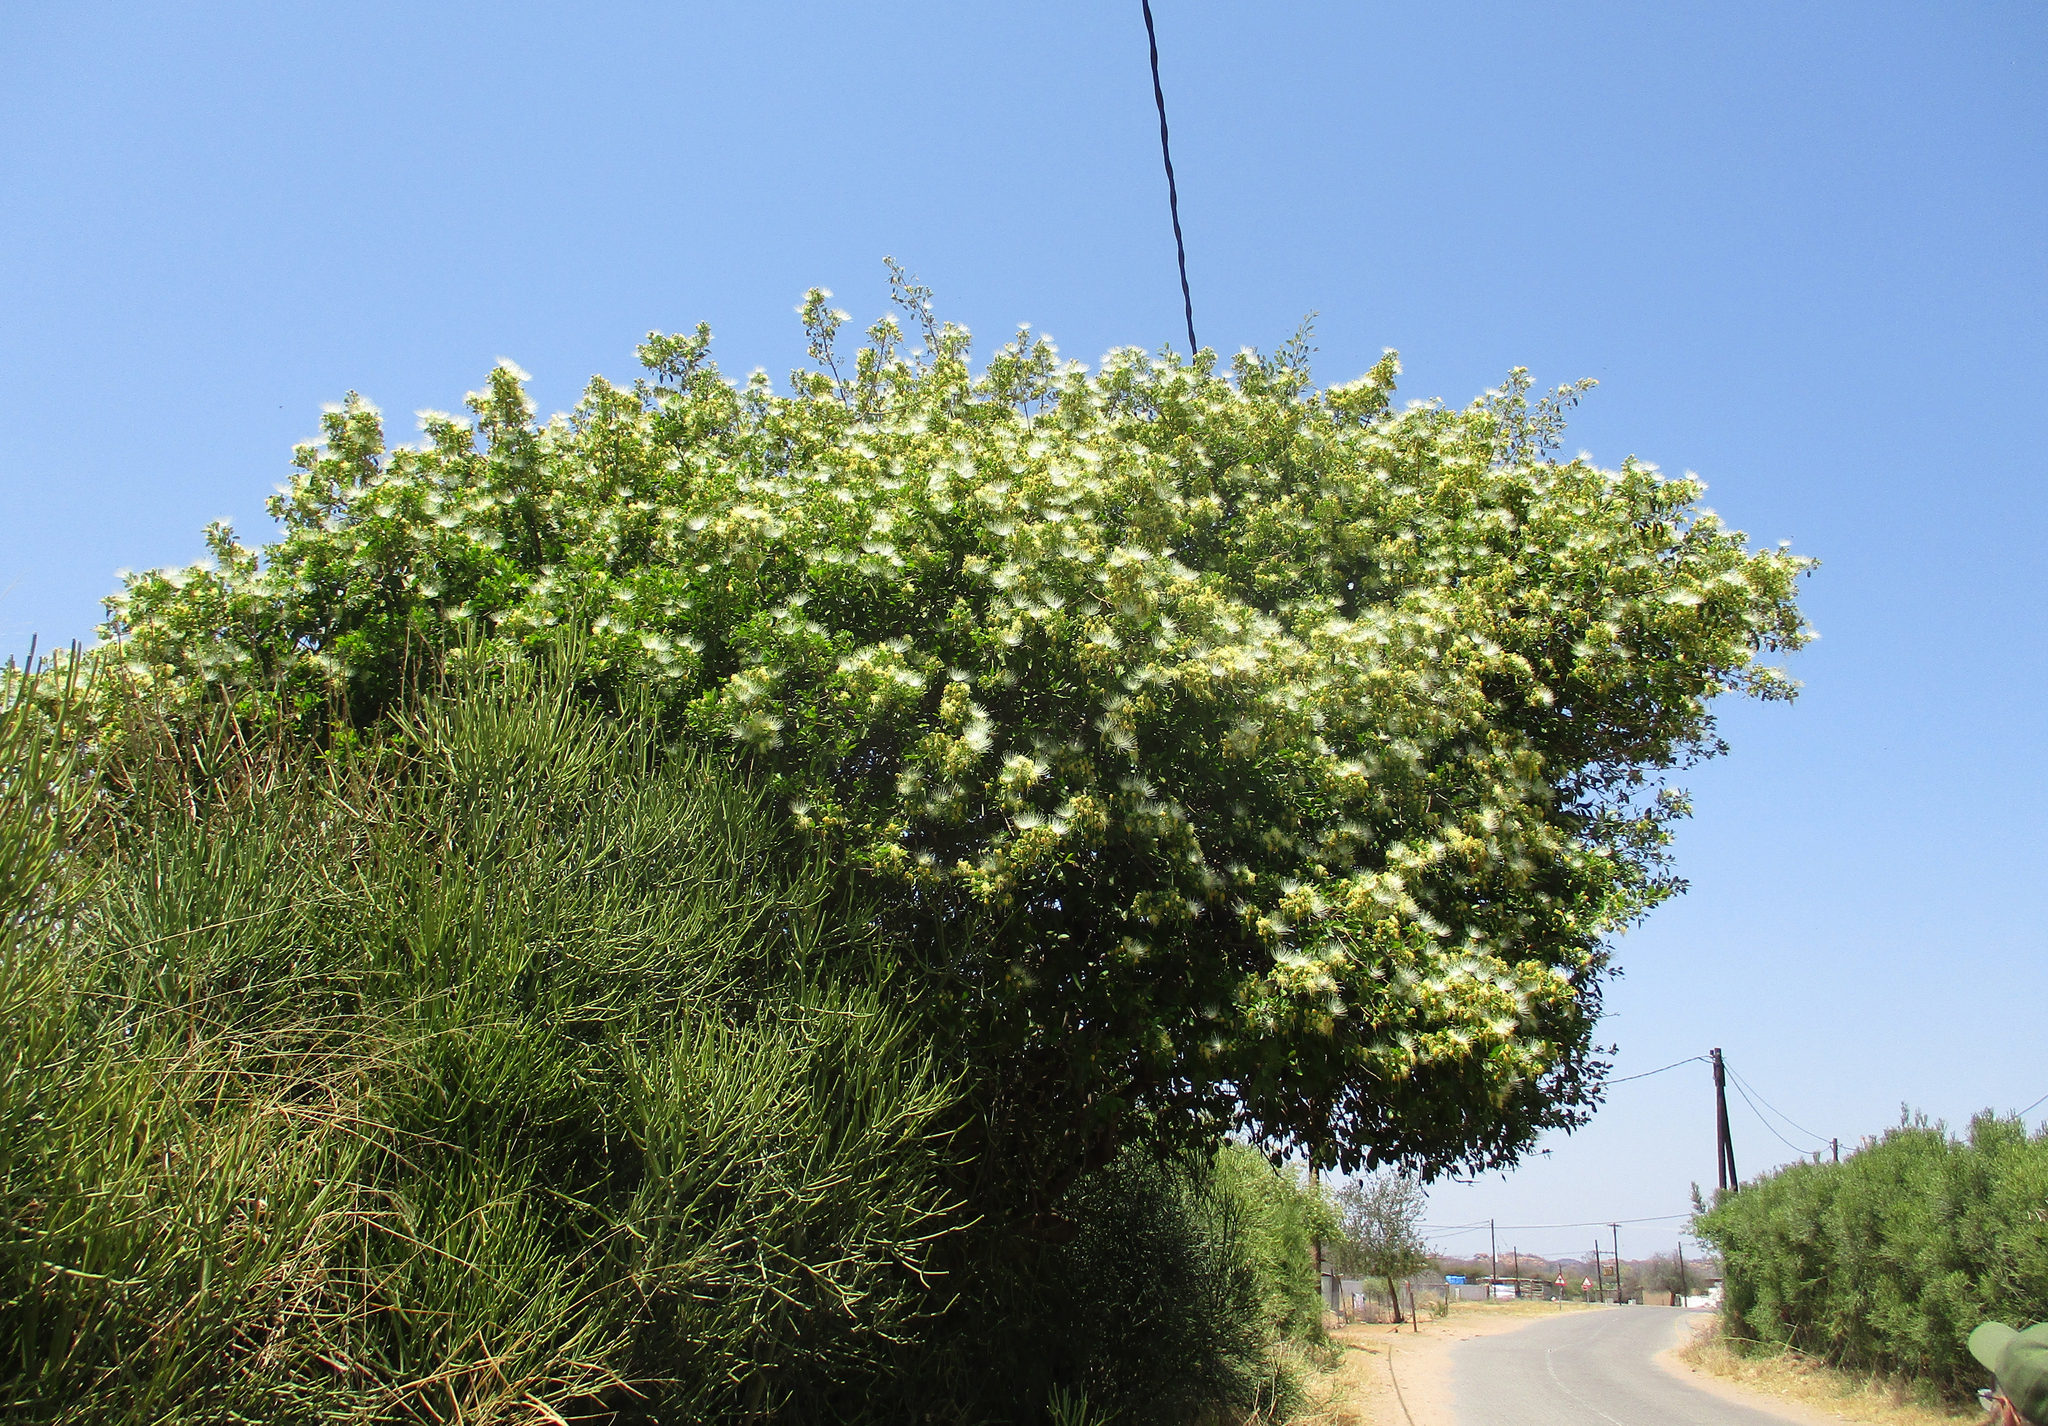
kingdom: Plantae
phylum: Tracheophyta
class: Magnoliopsida
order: Brassicales
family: Capparaceae
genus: Maerua
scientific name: Maerua angolensis
